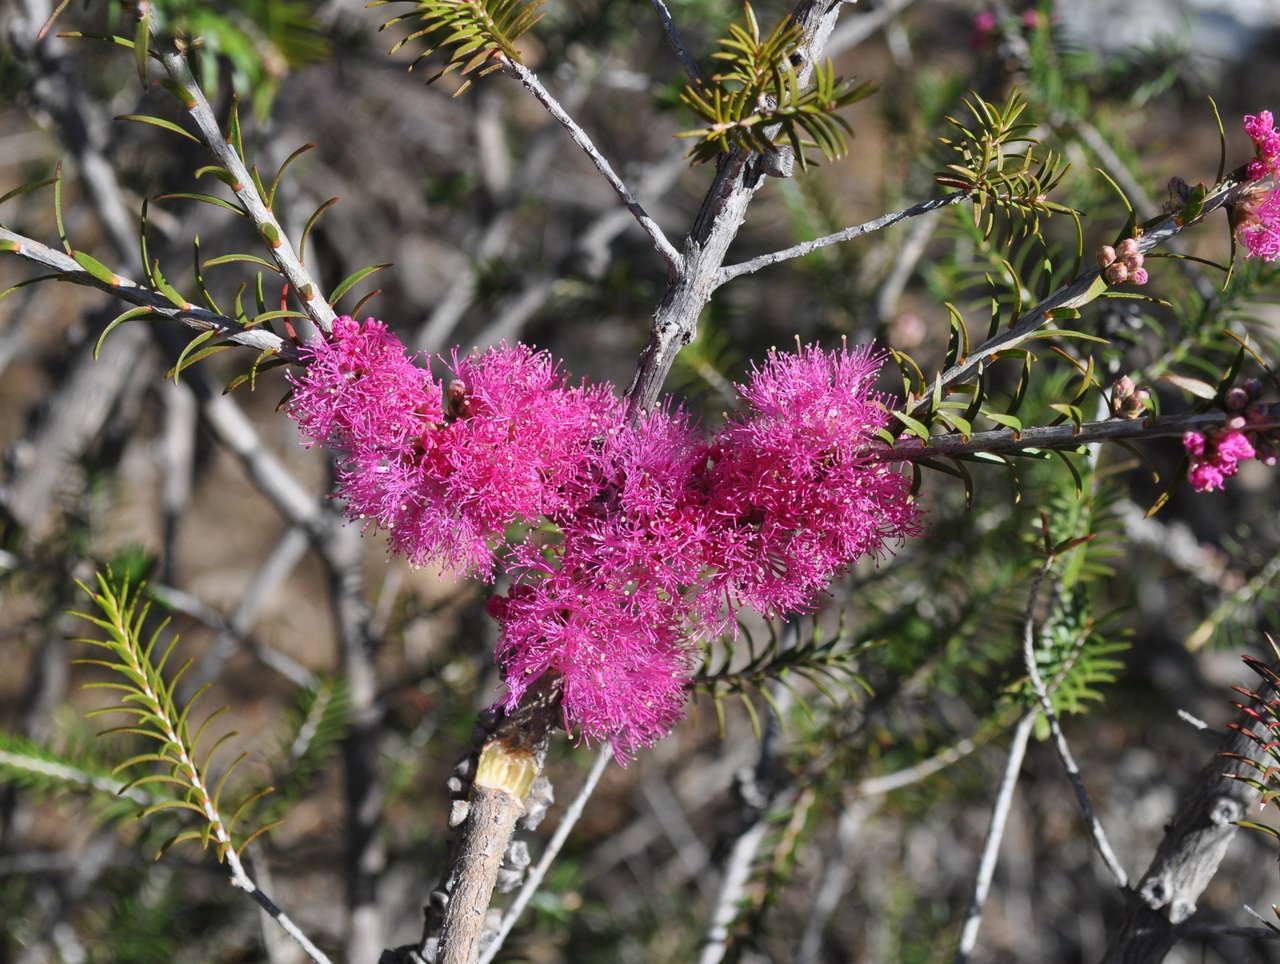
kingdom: Plantae
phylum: Tracheophyta
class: Magnoliopsida
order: Myrtales
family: Myrtaceae
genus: Melaleuca
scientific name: Melaleuca wilsonii
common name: Violet honey myrtle
